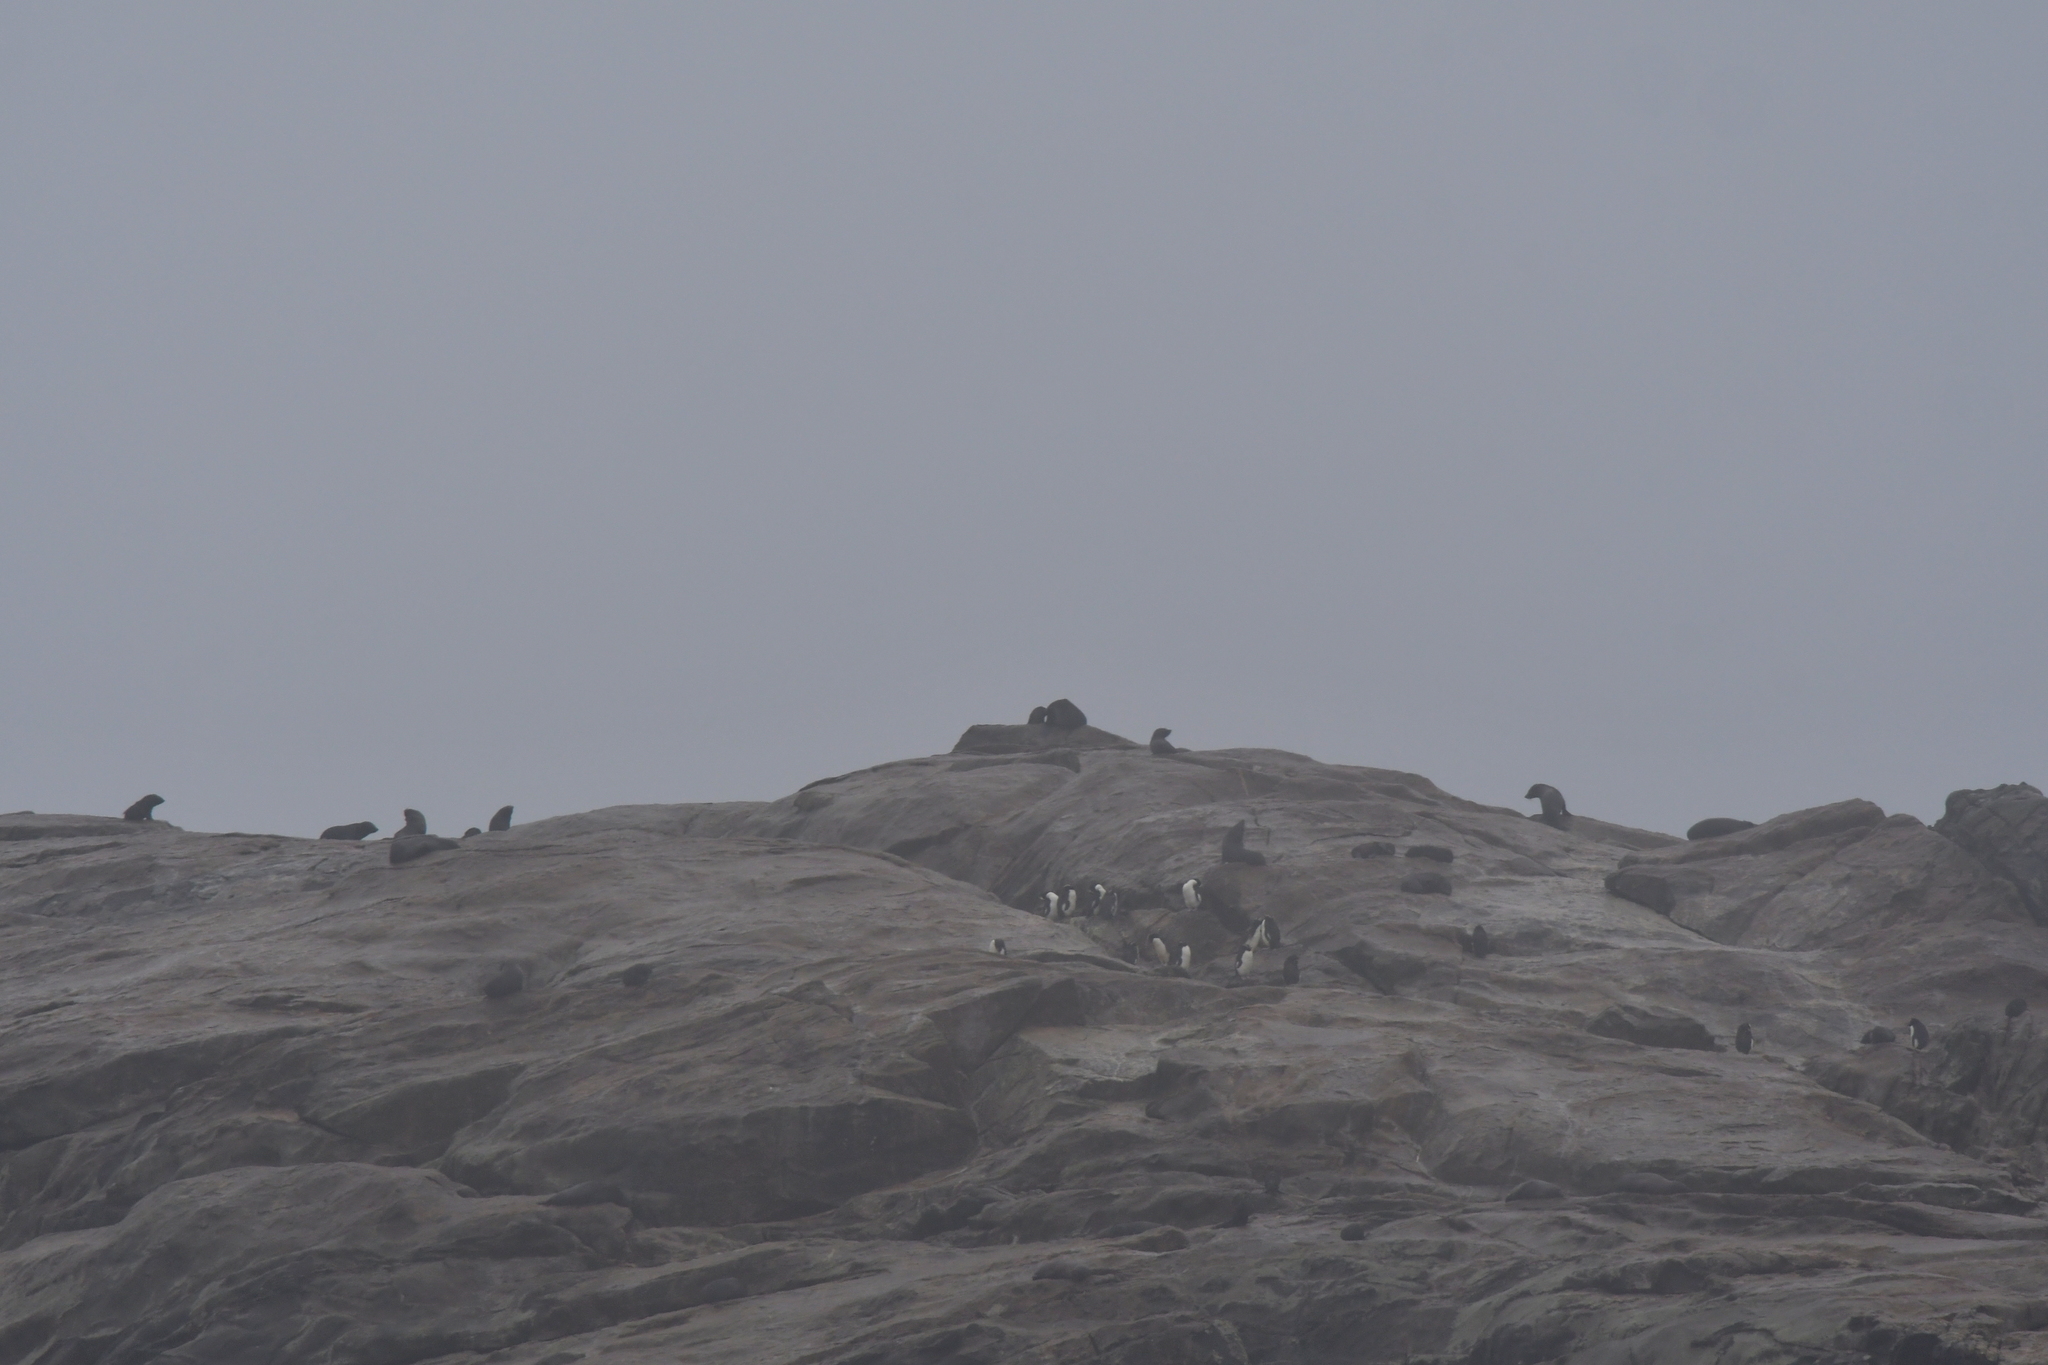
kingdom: Animalia
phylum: Chordata
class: Mammalia
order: Carnivora
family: Otariidae
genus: Arctocephalus
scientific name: Arctocephalus forsteri
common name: New zealand fur seal
